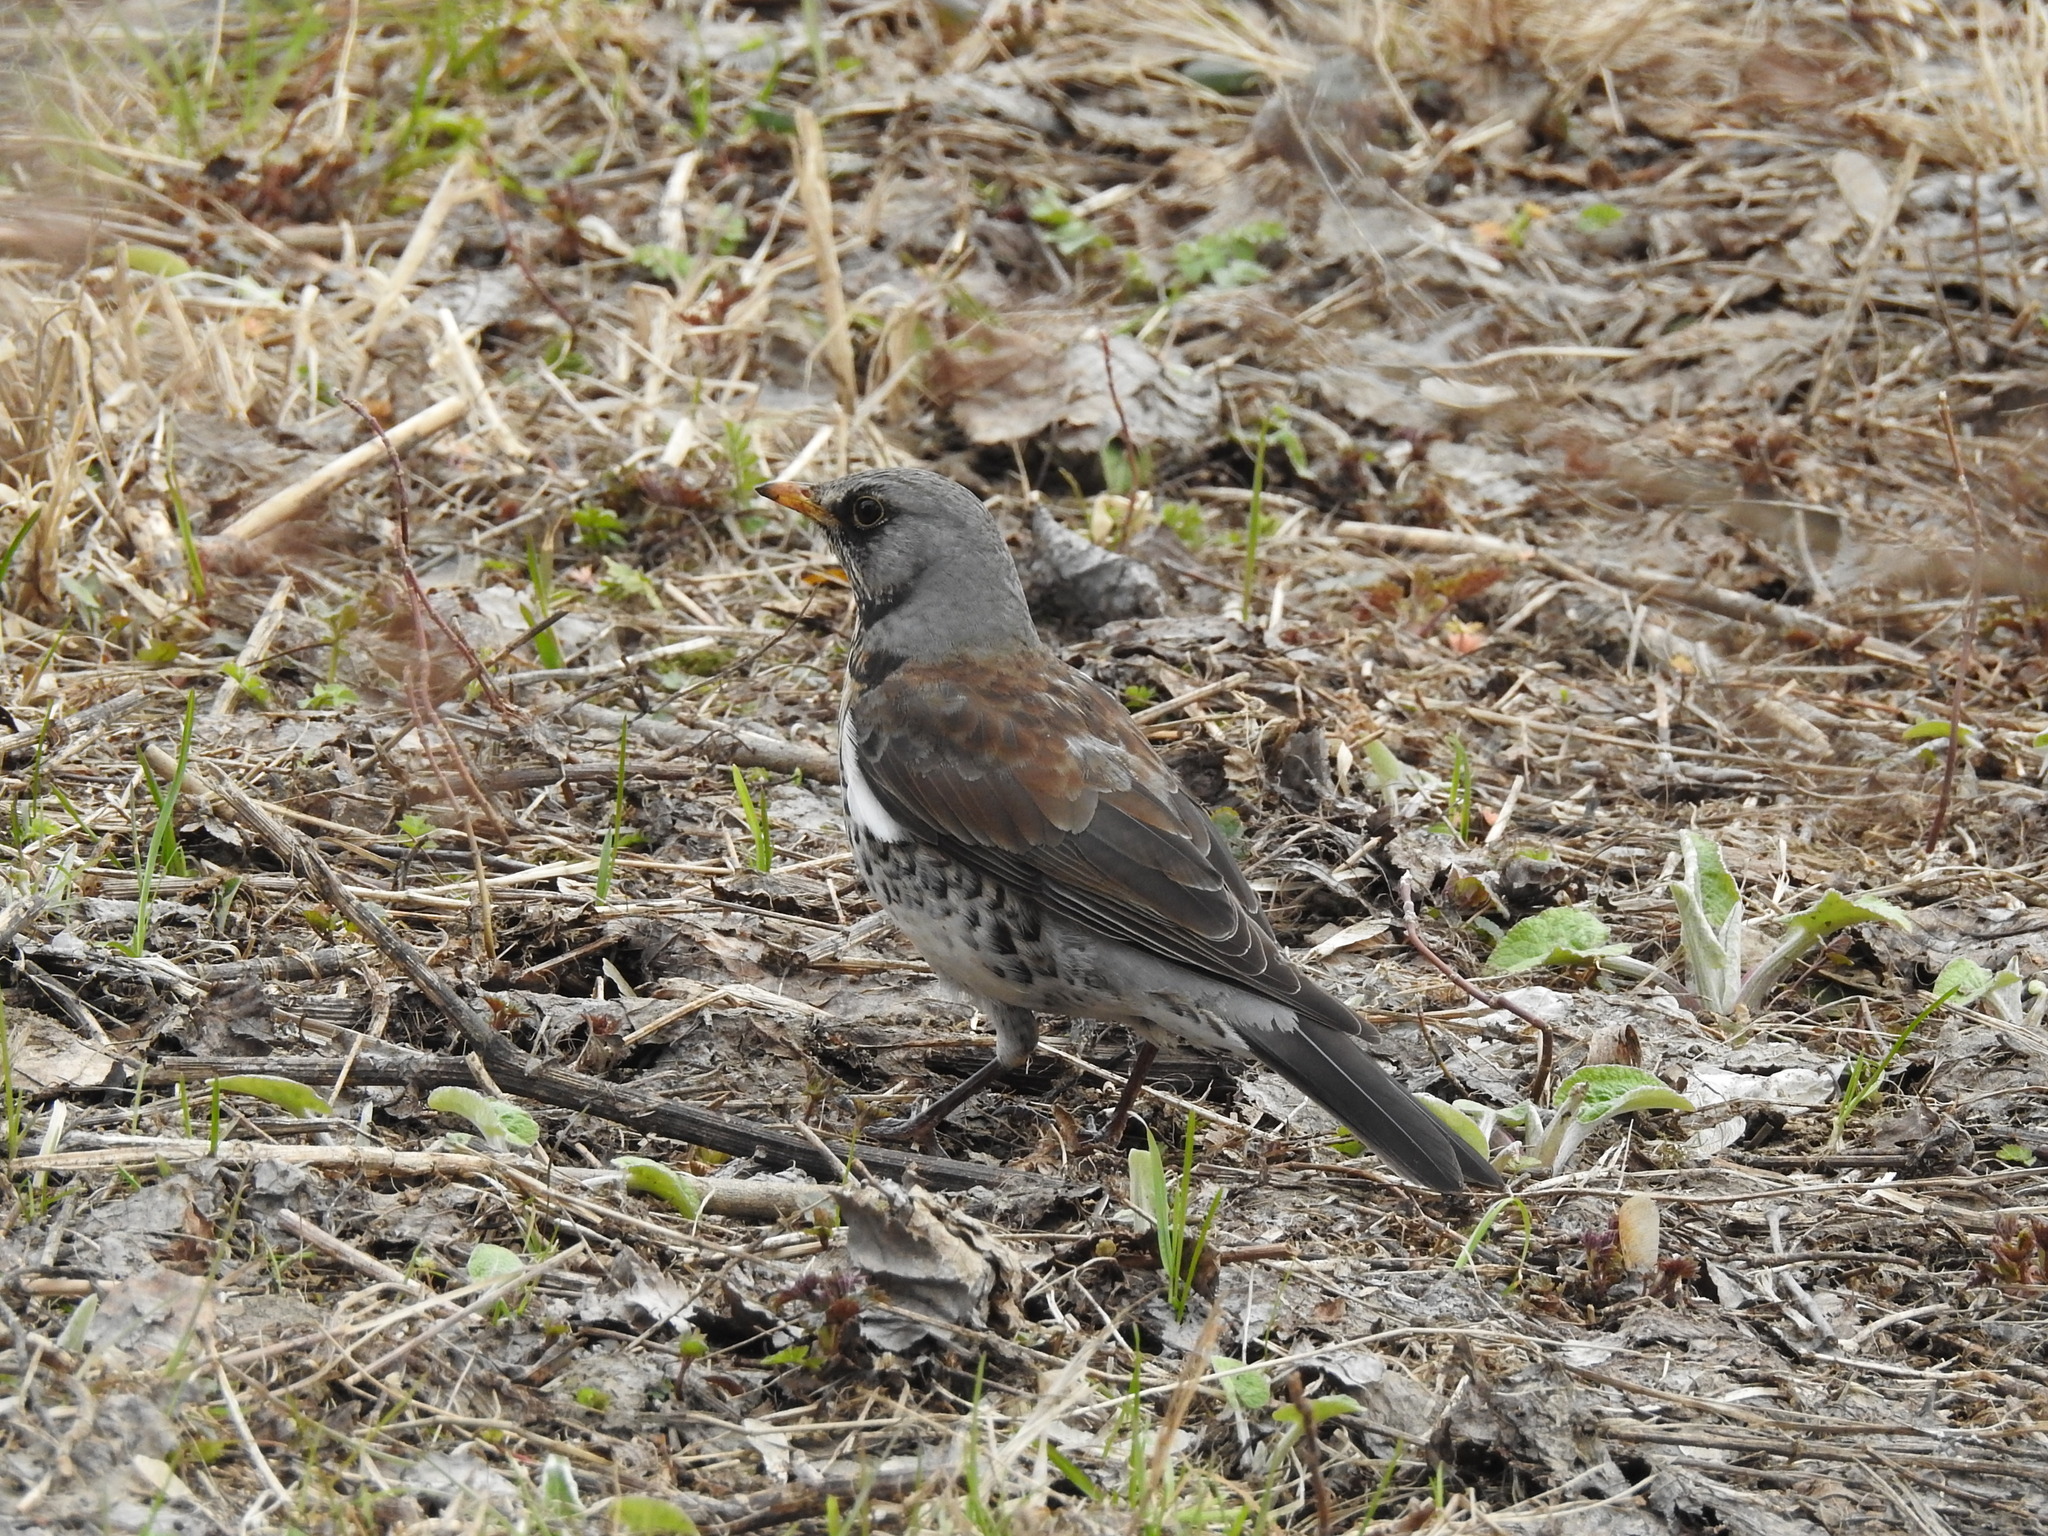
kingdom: Animalia
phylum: Chordata
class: Aves
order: Passeriformes
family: Turdidae
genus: Turdus
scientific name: Turdus pilaris
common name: Fieldfare
